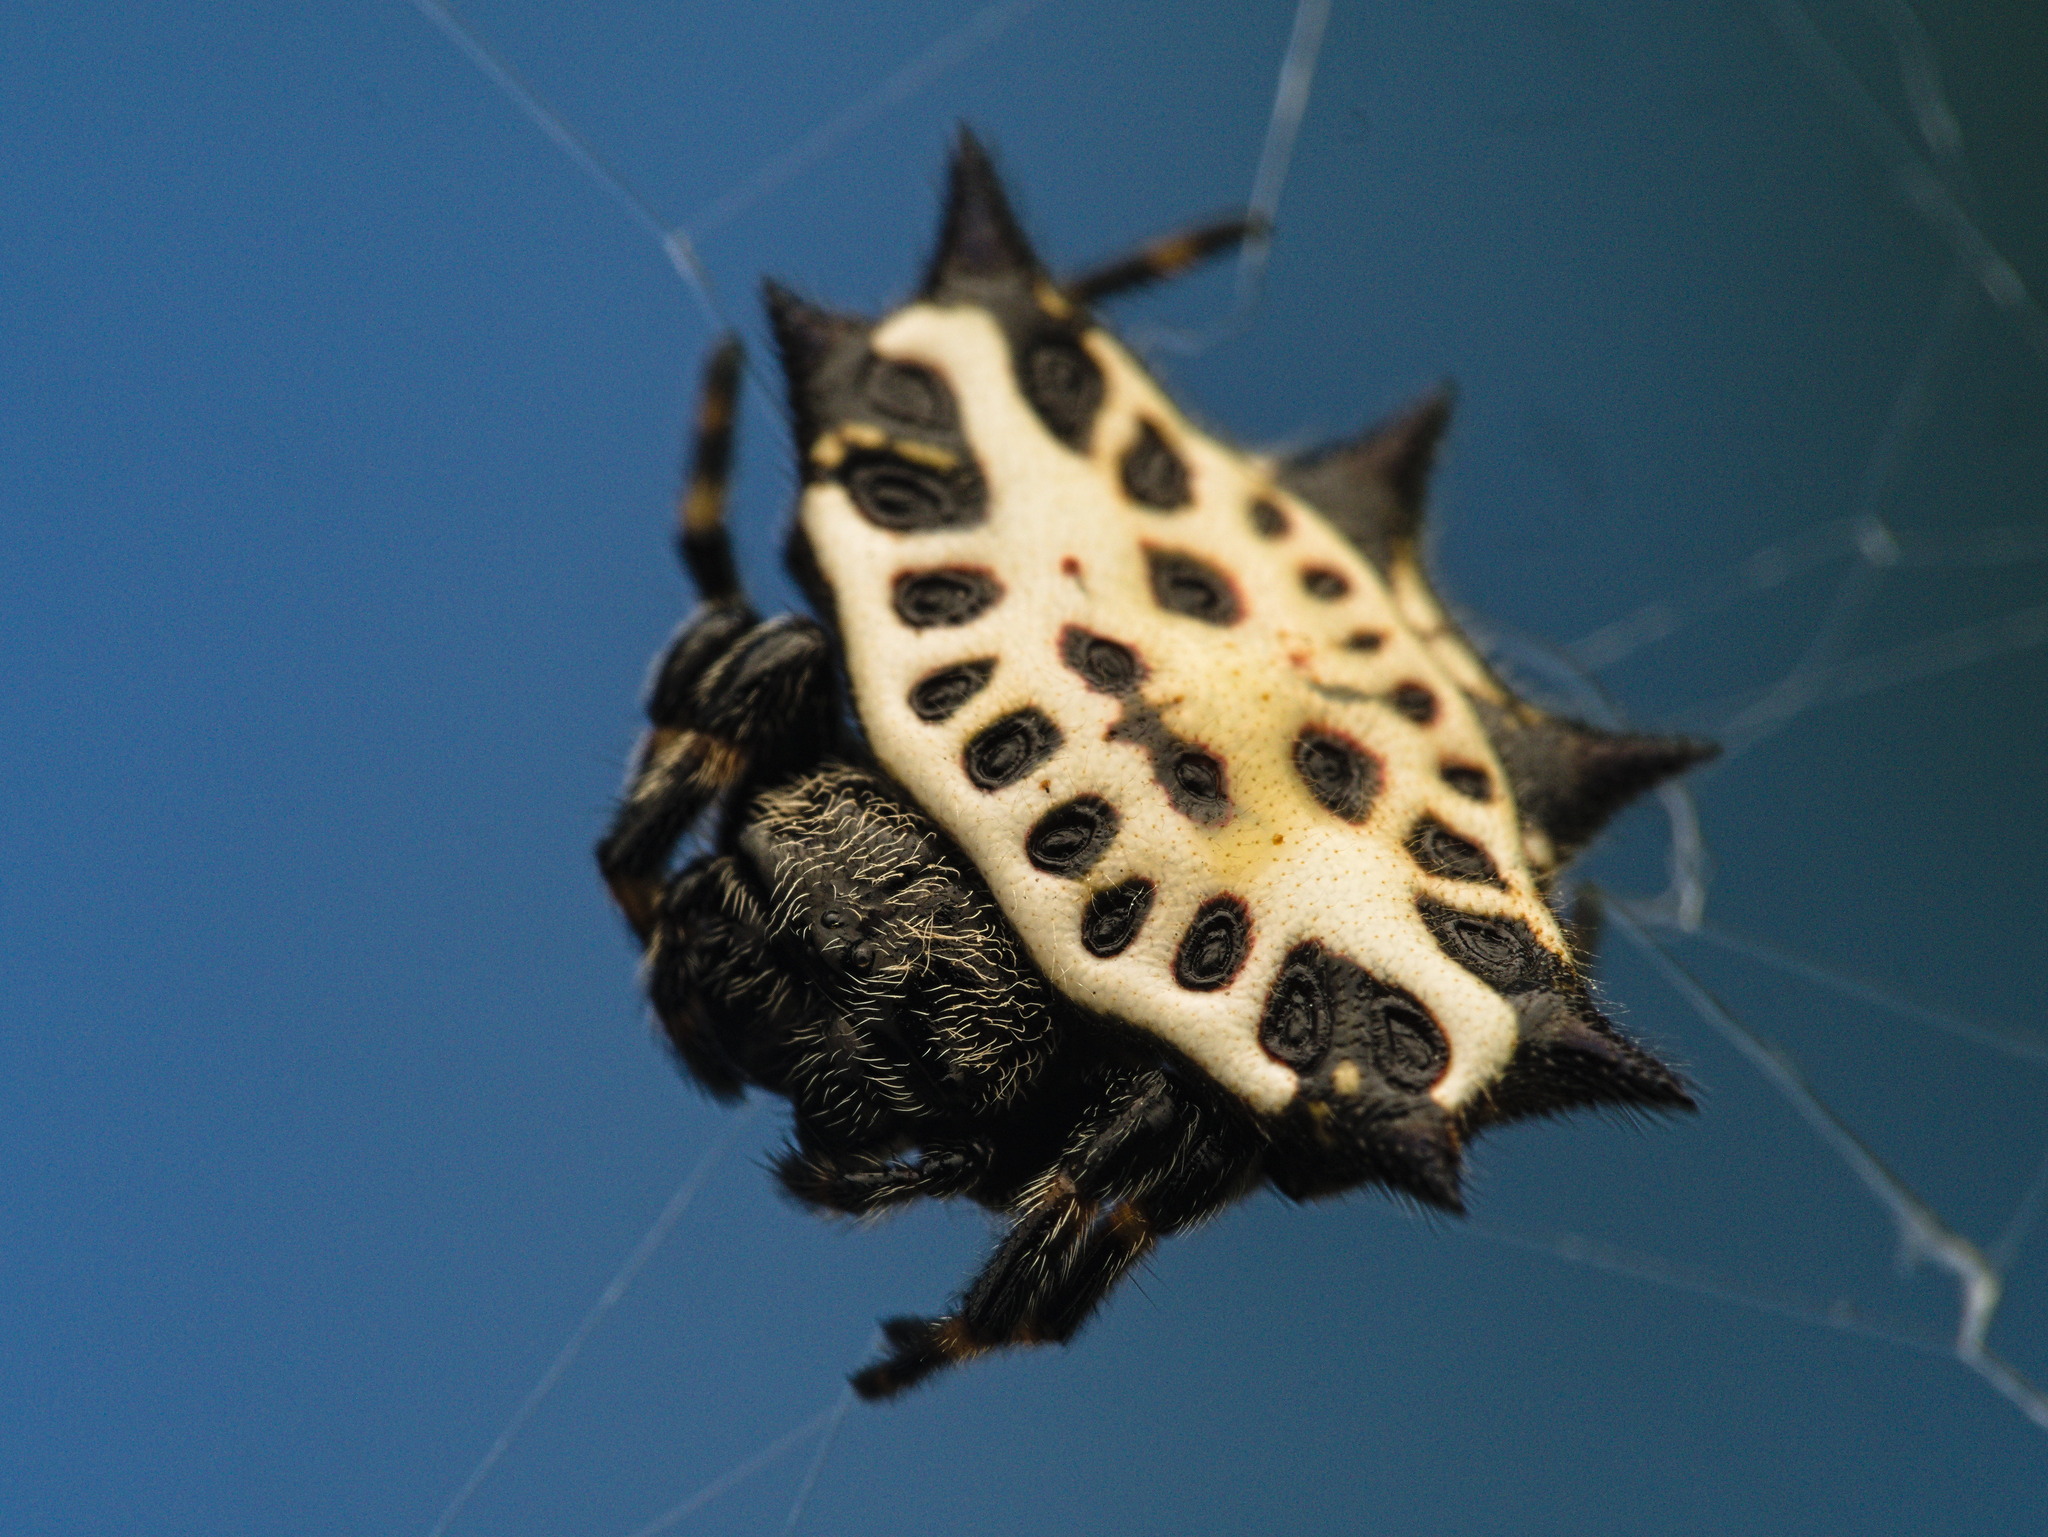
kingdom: Animalia
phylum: Arthropoda
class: Arachnida
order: Araneae
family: Araneidae
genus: Gasteracantha
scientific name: Gasteracantha cancriformis
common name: Orb weavers
